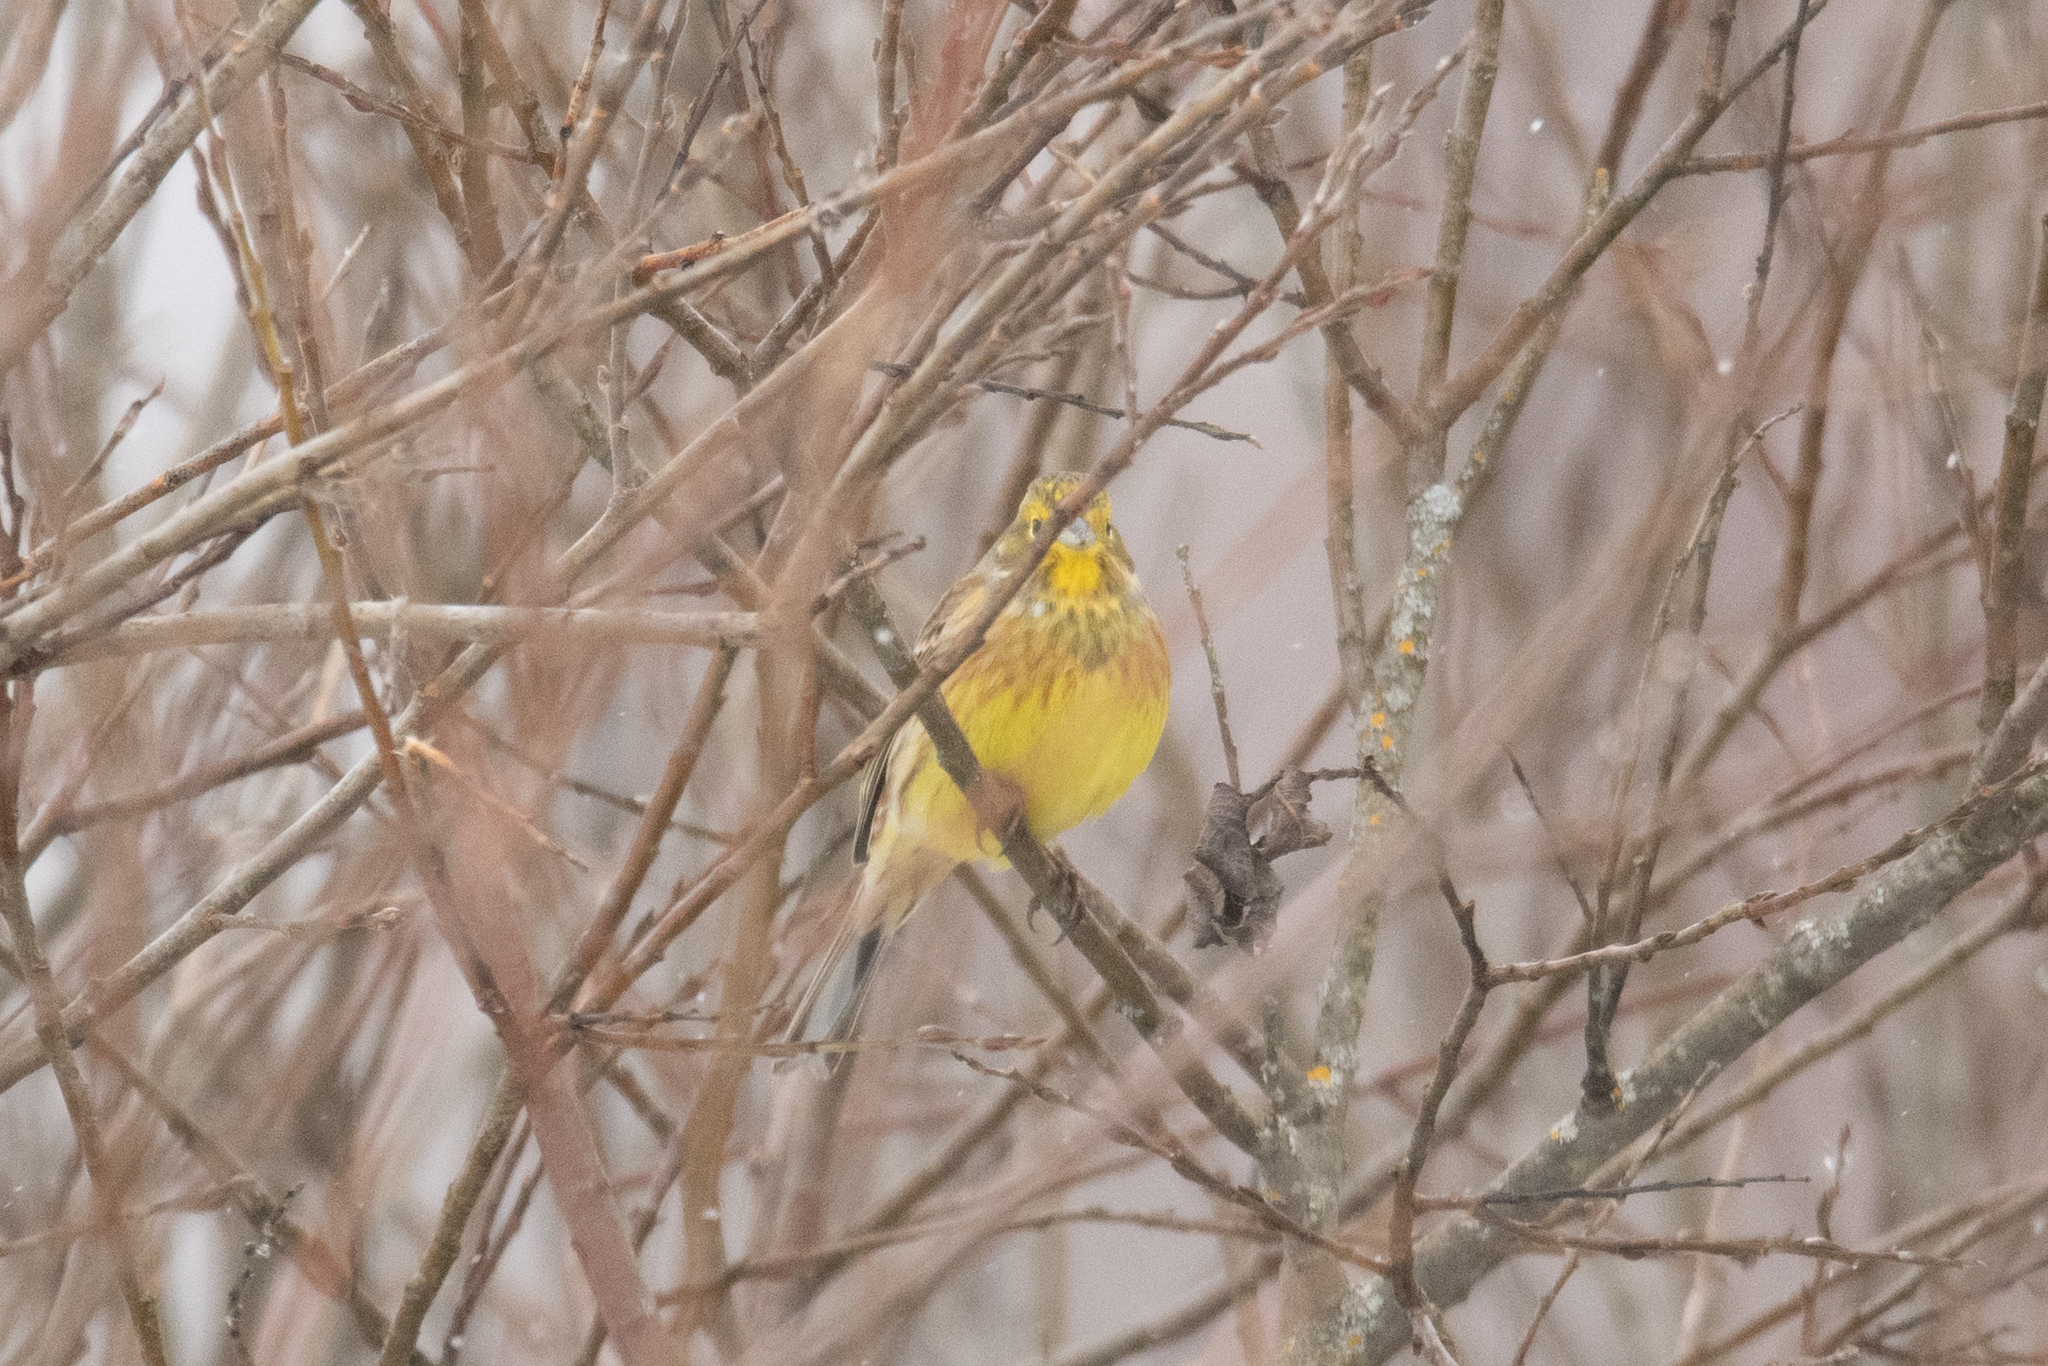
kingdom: Animalia
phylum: Chordata
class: Aves
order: Passeriformes
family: Emberizidae
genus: Emberiza
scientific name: Emberiza citrinella
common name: Yellowhammer
